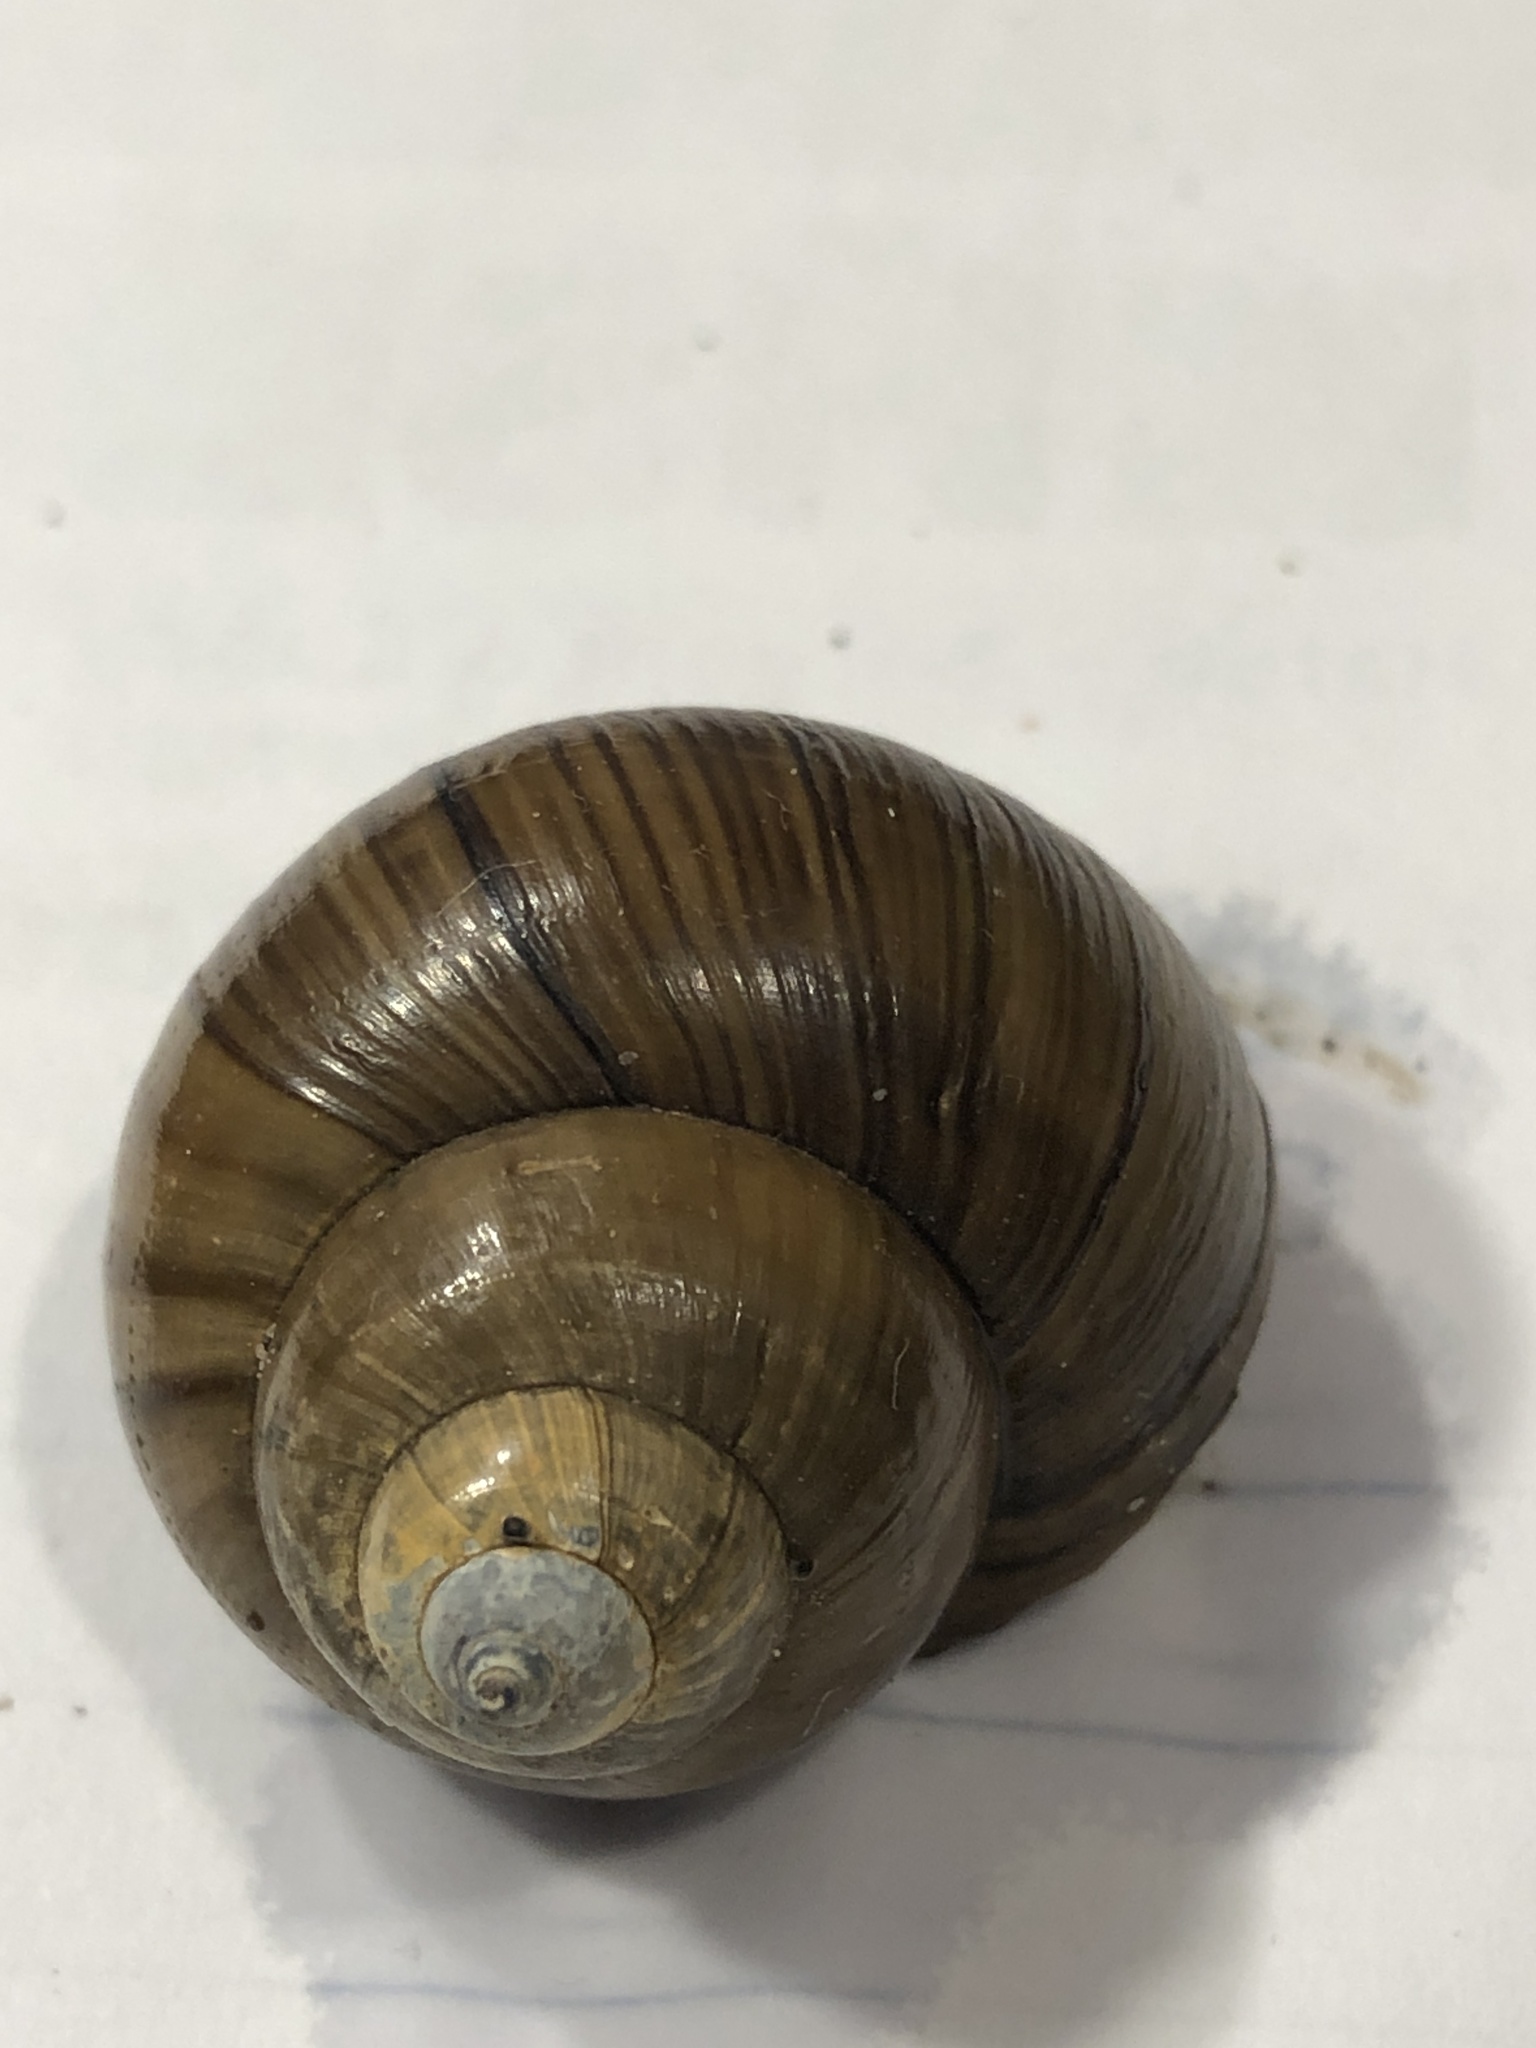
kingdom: Animalia
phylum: Mollusca
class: Gastropoda
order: Architaenioglossa
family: Viviparidae
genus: Cipangopaludina
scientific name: Cipangopaludina chinensis
